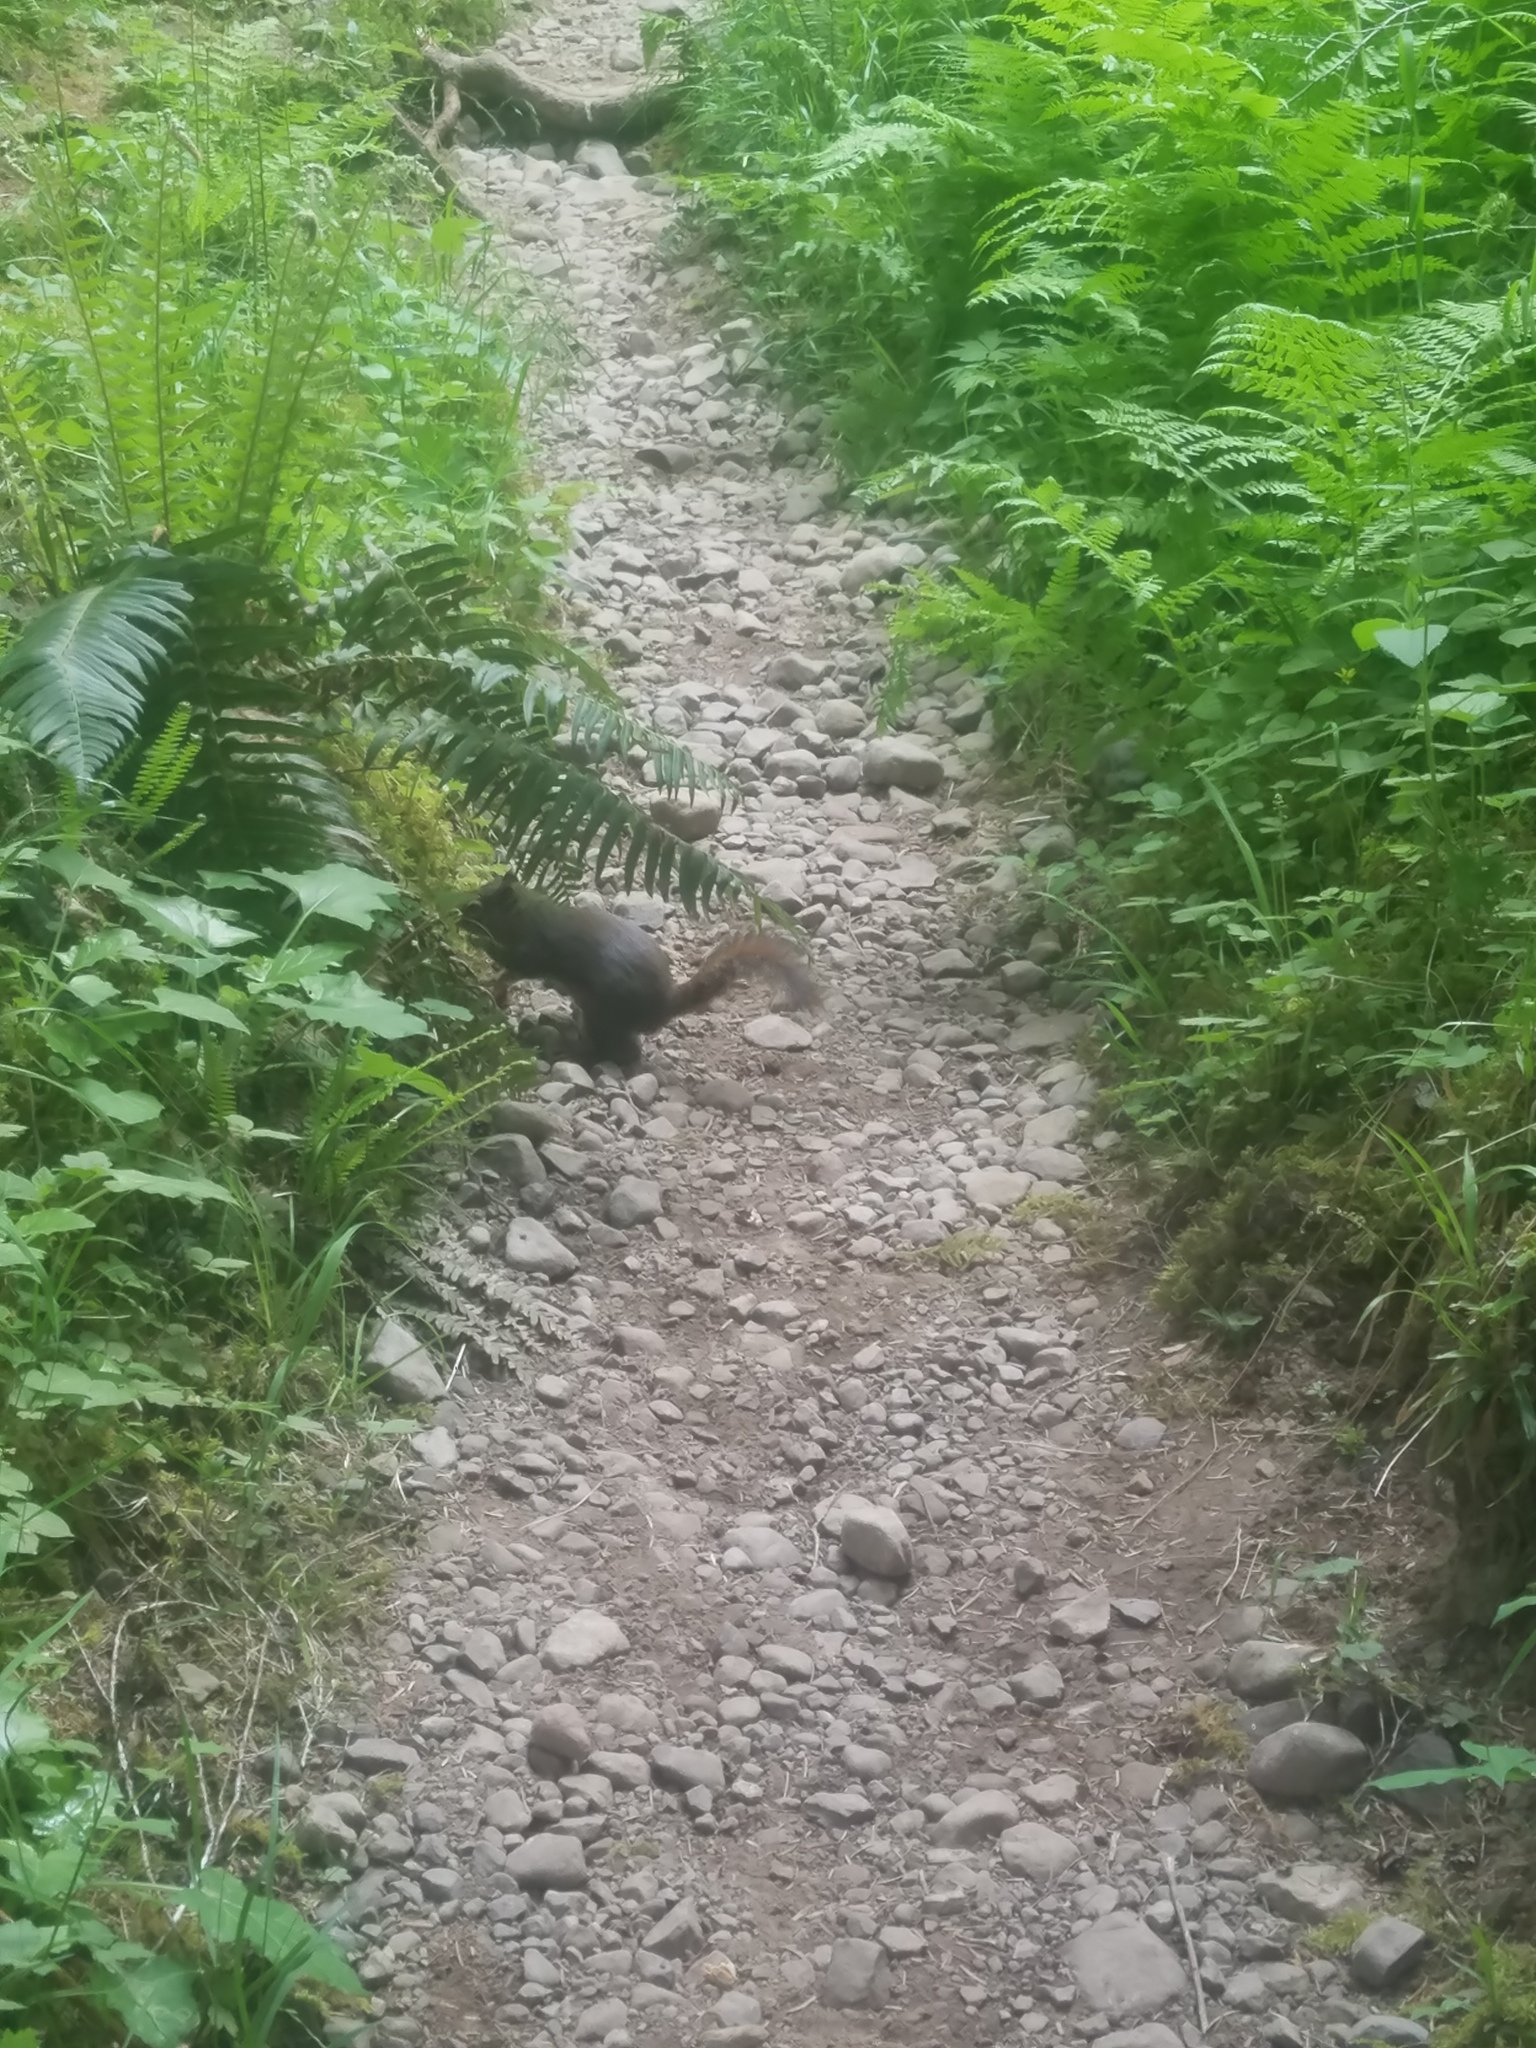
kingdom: Animalia
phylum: Chordata
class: Mammalia
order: Rodentia
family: Sciuridae
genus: Tamiasciurus
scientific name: Tamiasciurus douglasii
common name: Douglas's squirrel
